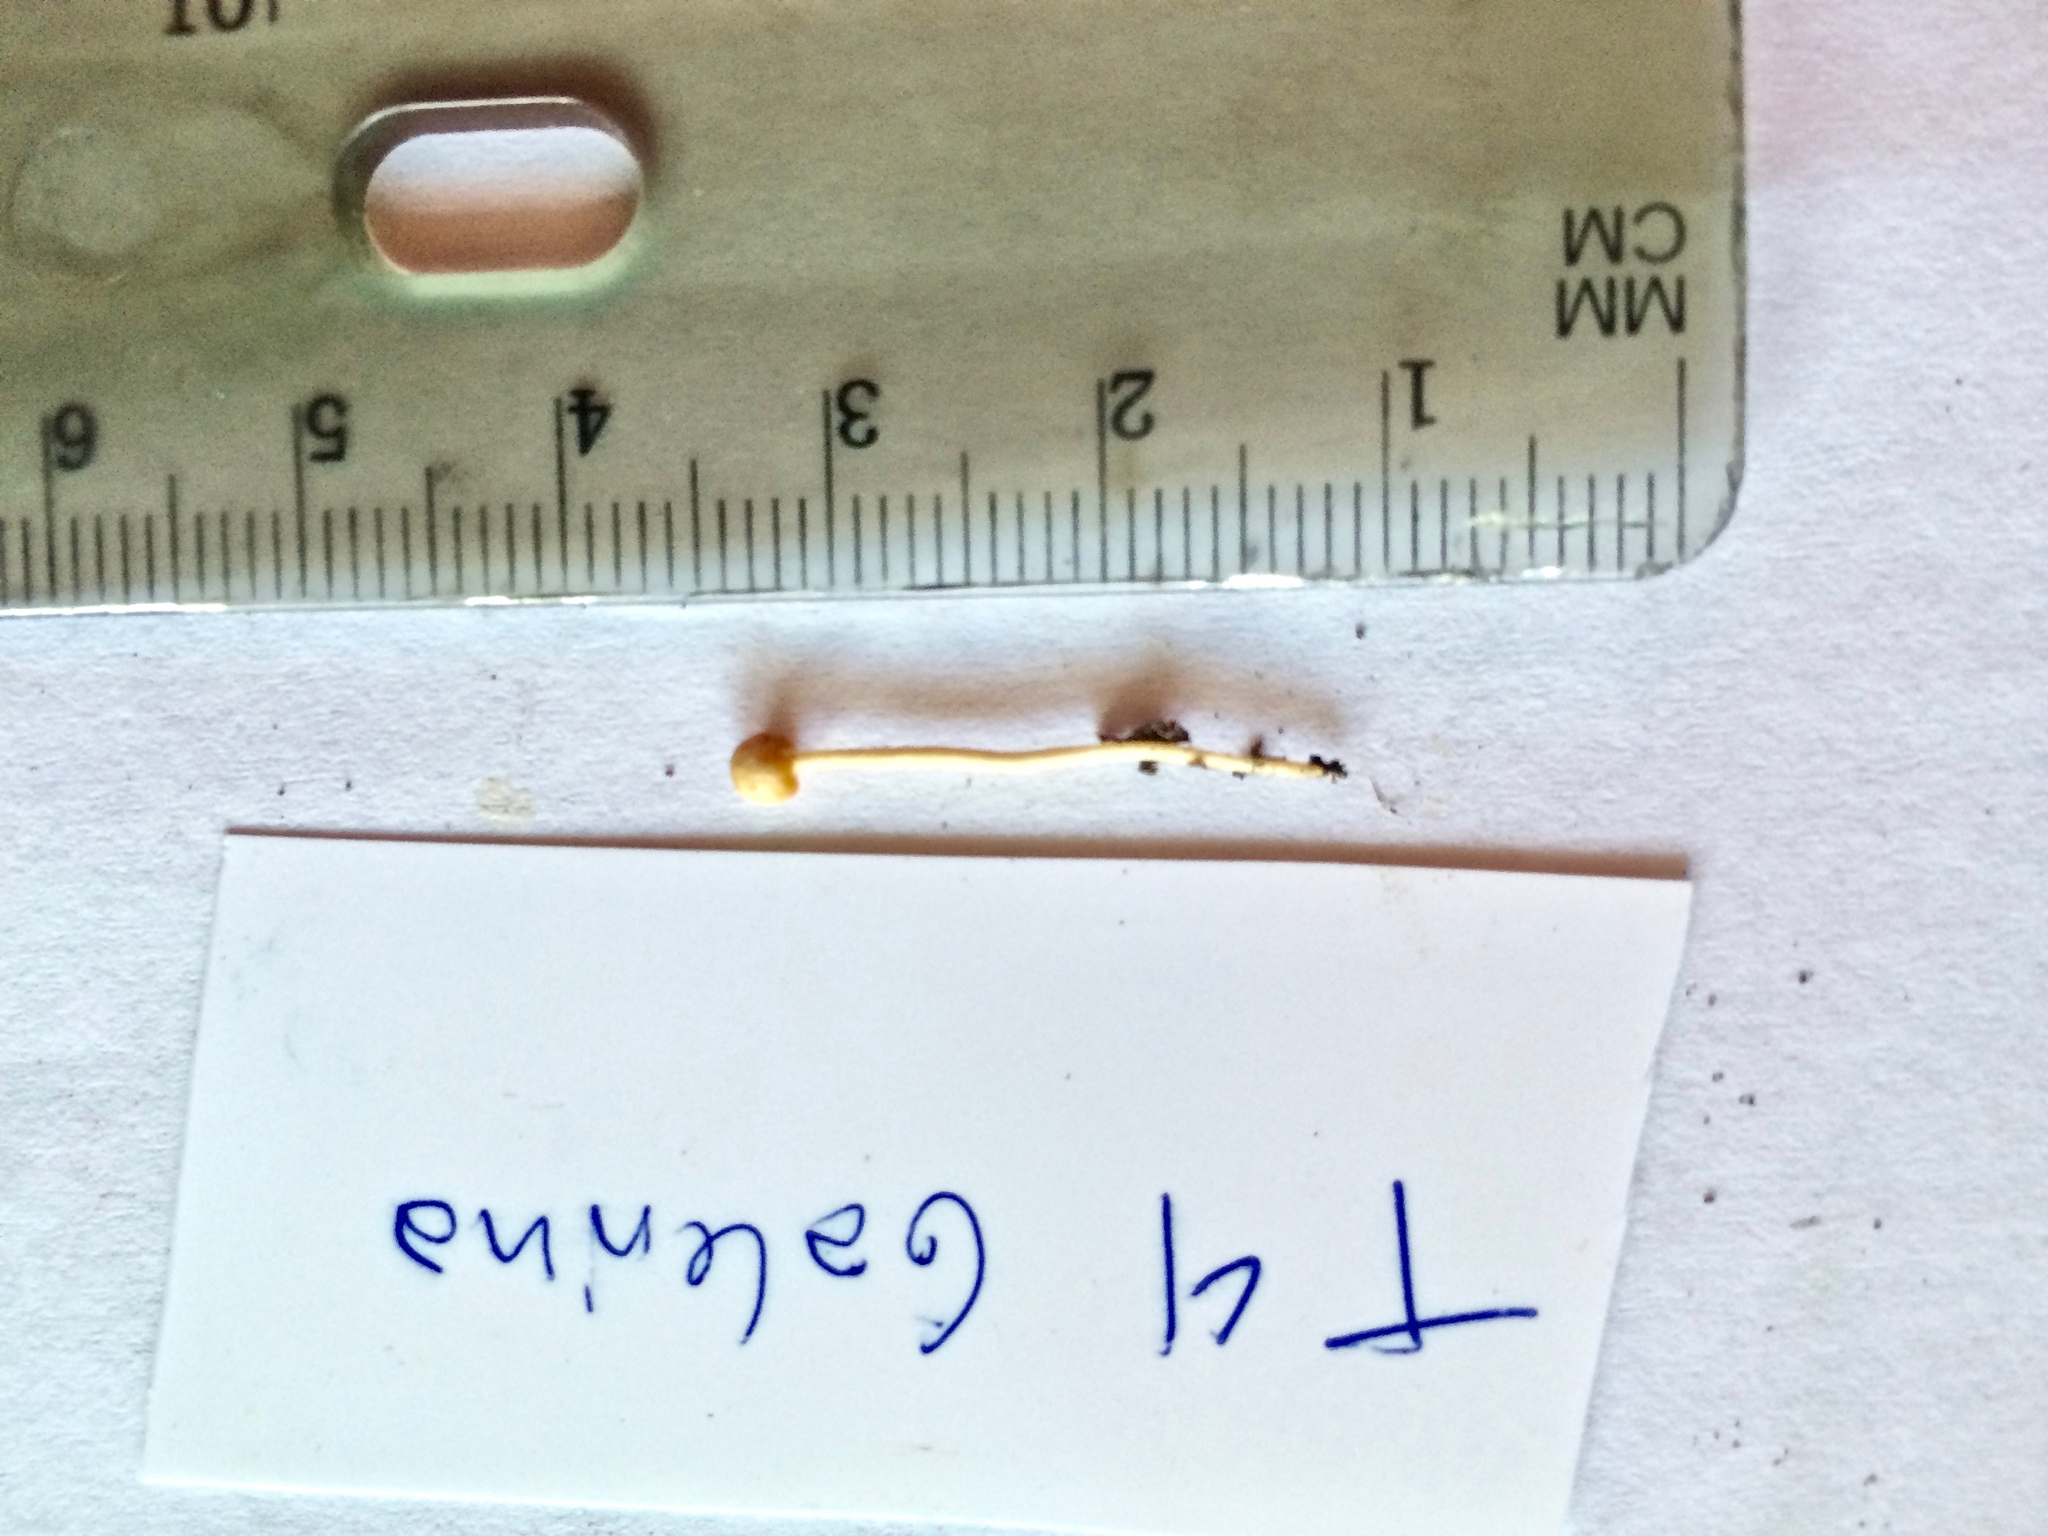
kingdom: Fungi
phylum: Basidiomycota
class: Agaricomycetes
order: Agaricales
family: Psathyrellaceae
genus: Psathyrella
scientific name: Psathyrella flexispora
